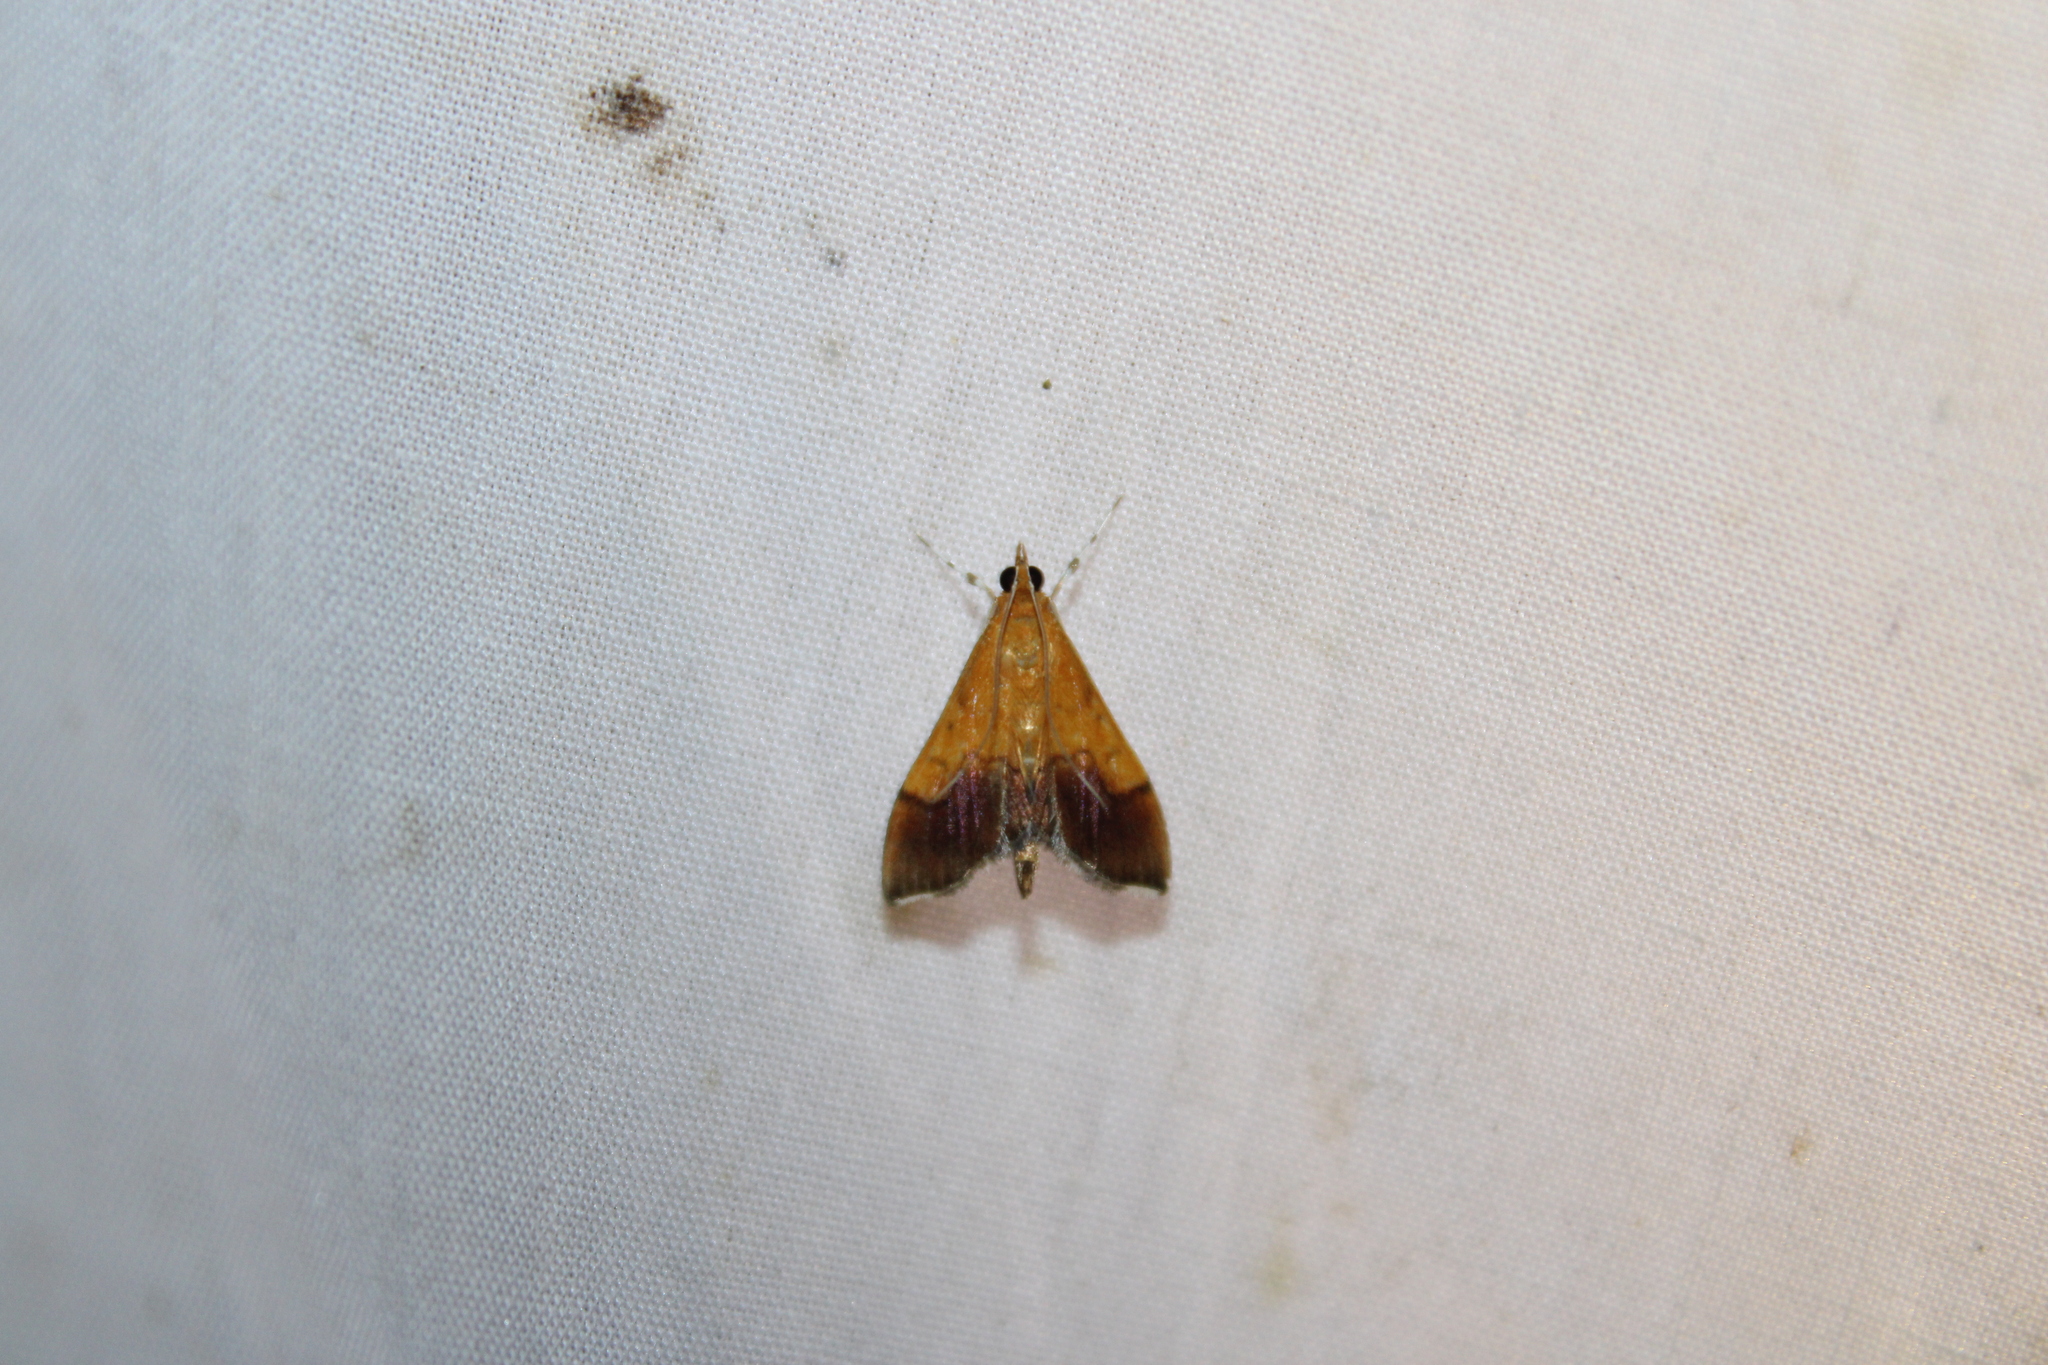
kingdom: Animalia
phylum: Arthropoda
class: Insecta
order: Lepidoptera
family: Crambidae
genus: Pyrausta
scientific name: Pyrausta bicoloralis
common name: Bicolored pyrausta moth
